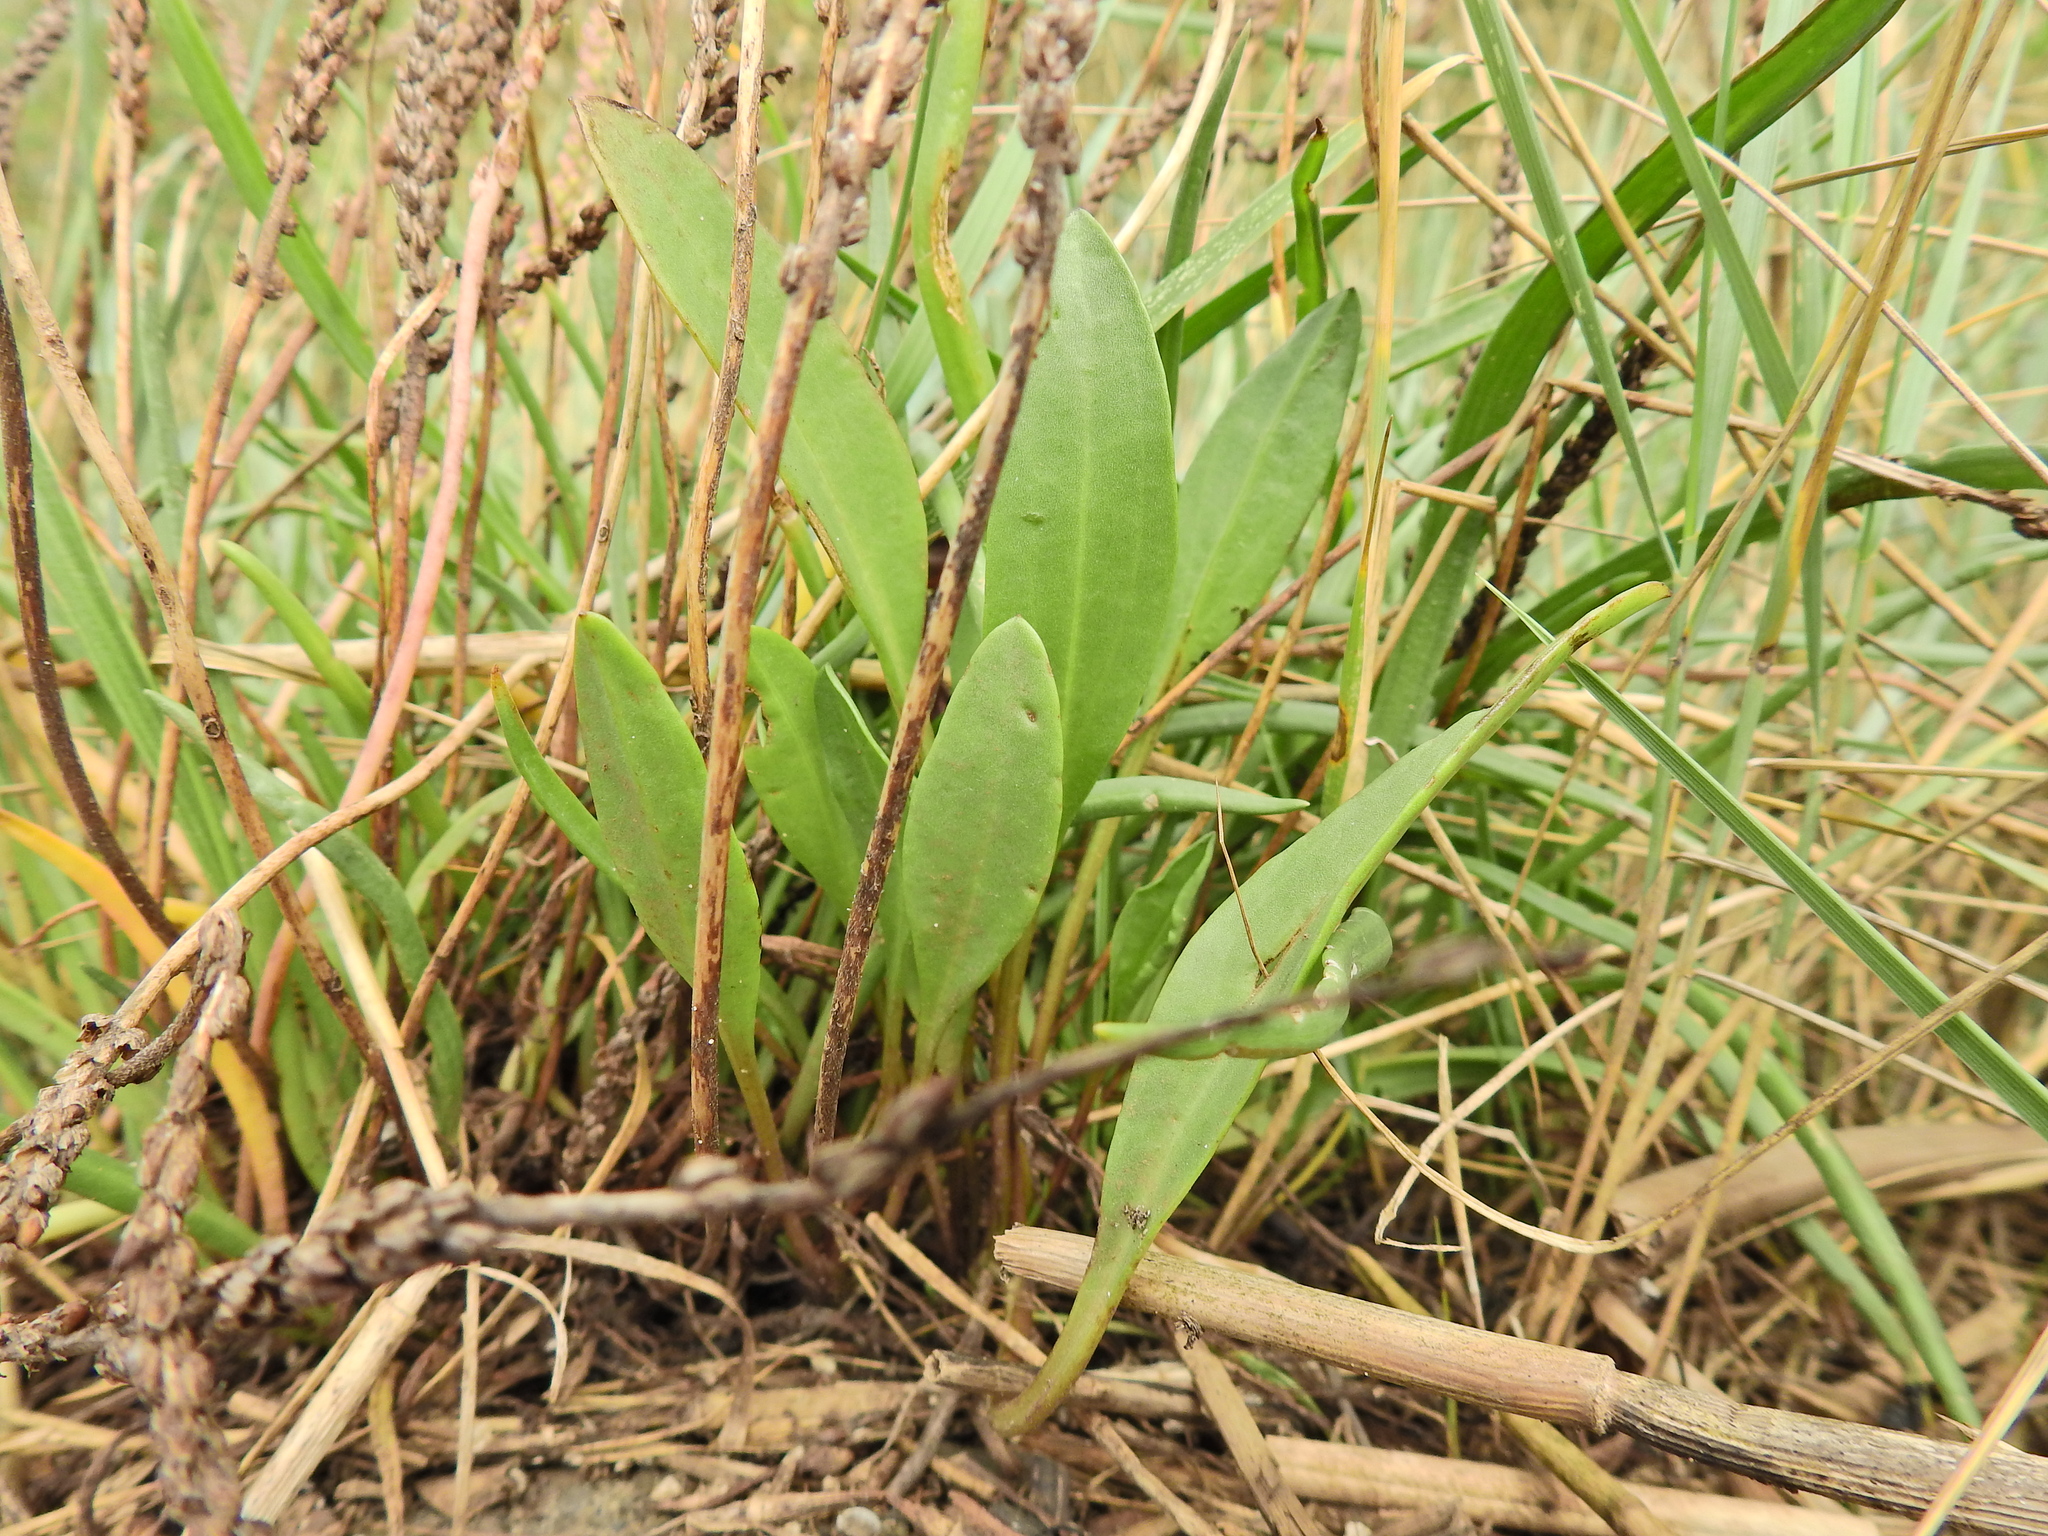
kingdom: Plantae
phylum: Tracheophyta
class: Magnoliopsida
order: Asterales
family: Asteraceae
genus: Tripolium
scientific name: Tripolium pannonicum
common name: Sea aster
